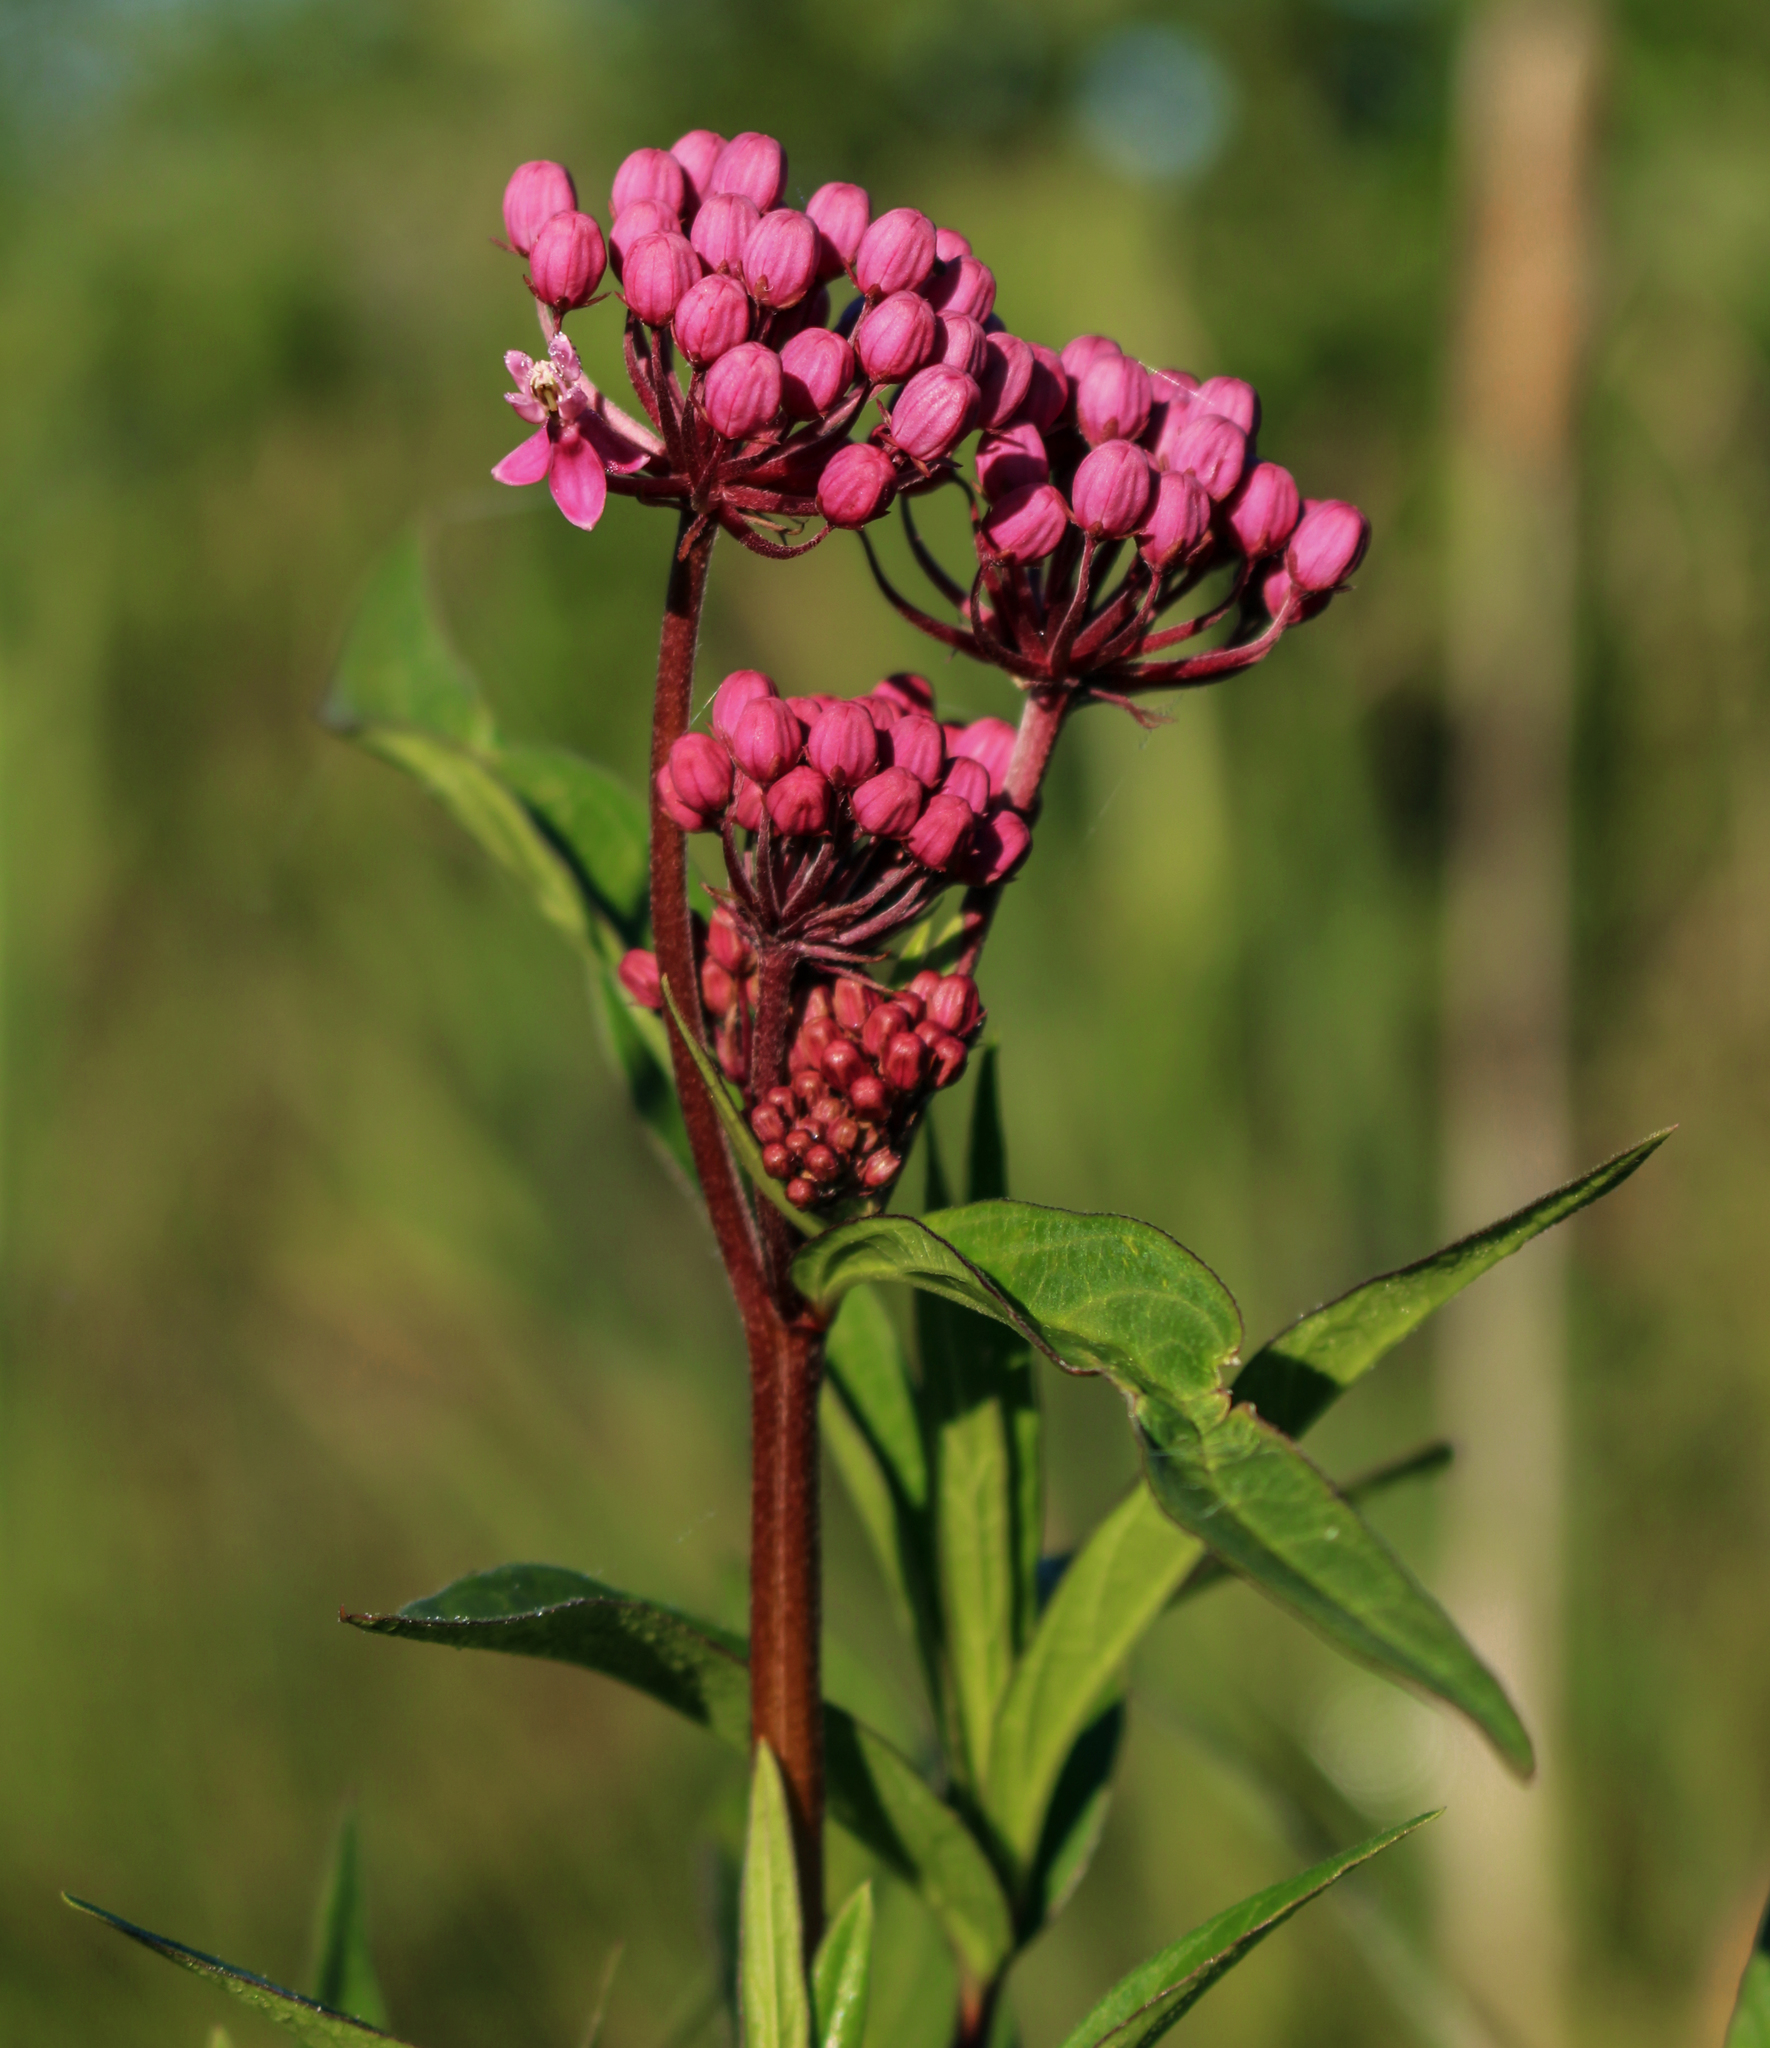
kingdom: Plantae
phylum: Tracheophyta
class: Magnoliopsida
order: Gentianales
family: Apocynaceae
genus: Asclepias
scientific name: Asclepias incarnata
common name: Swamp milkweed
